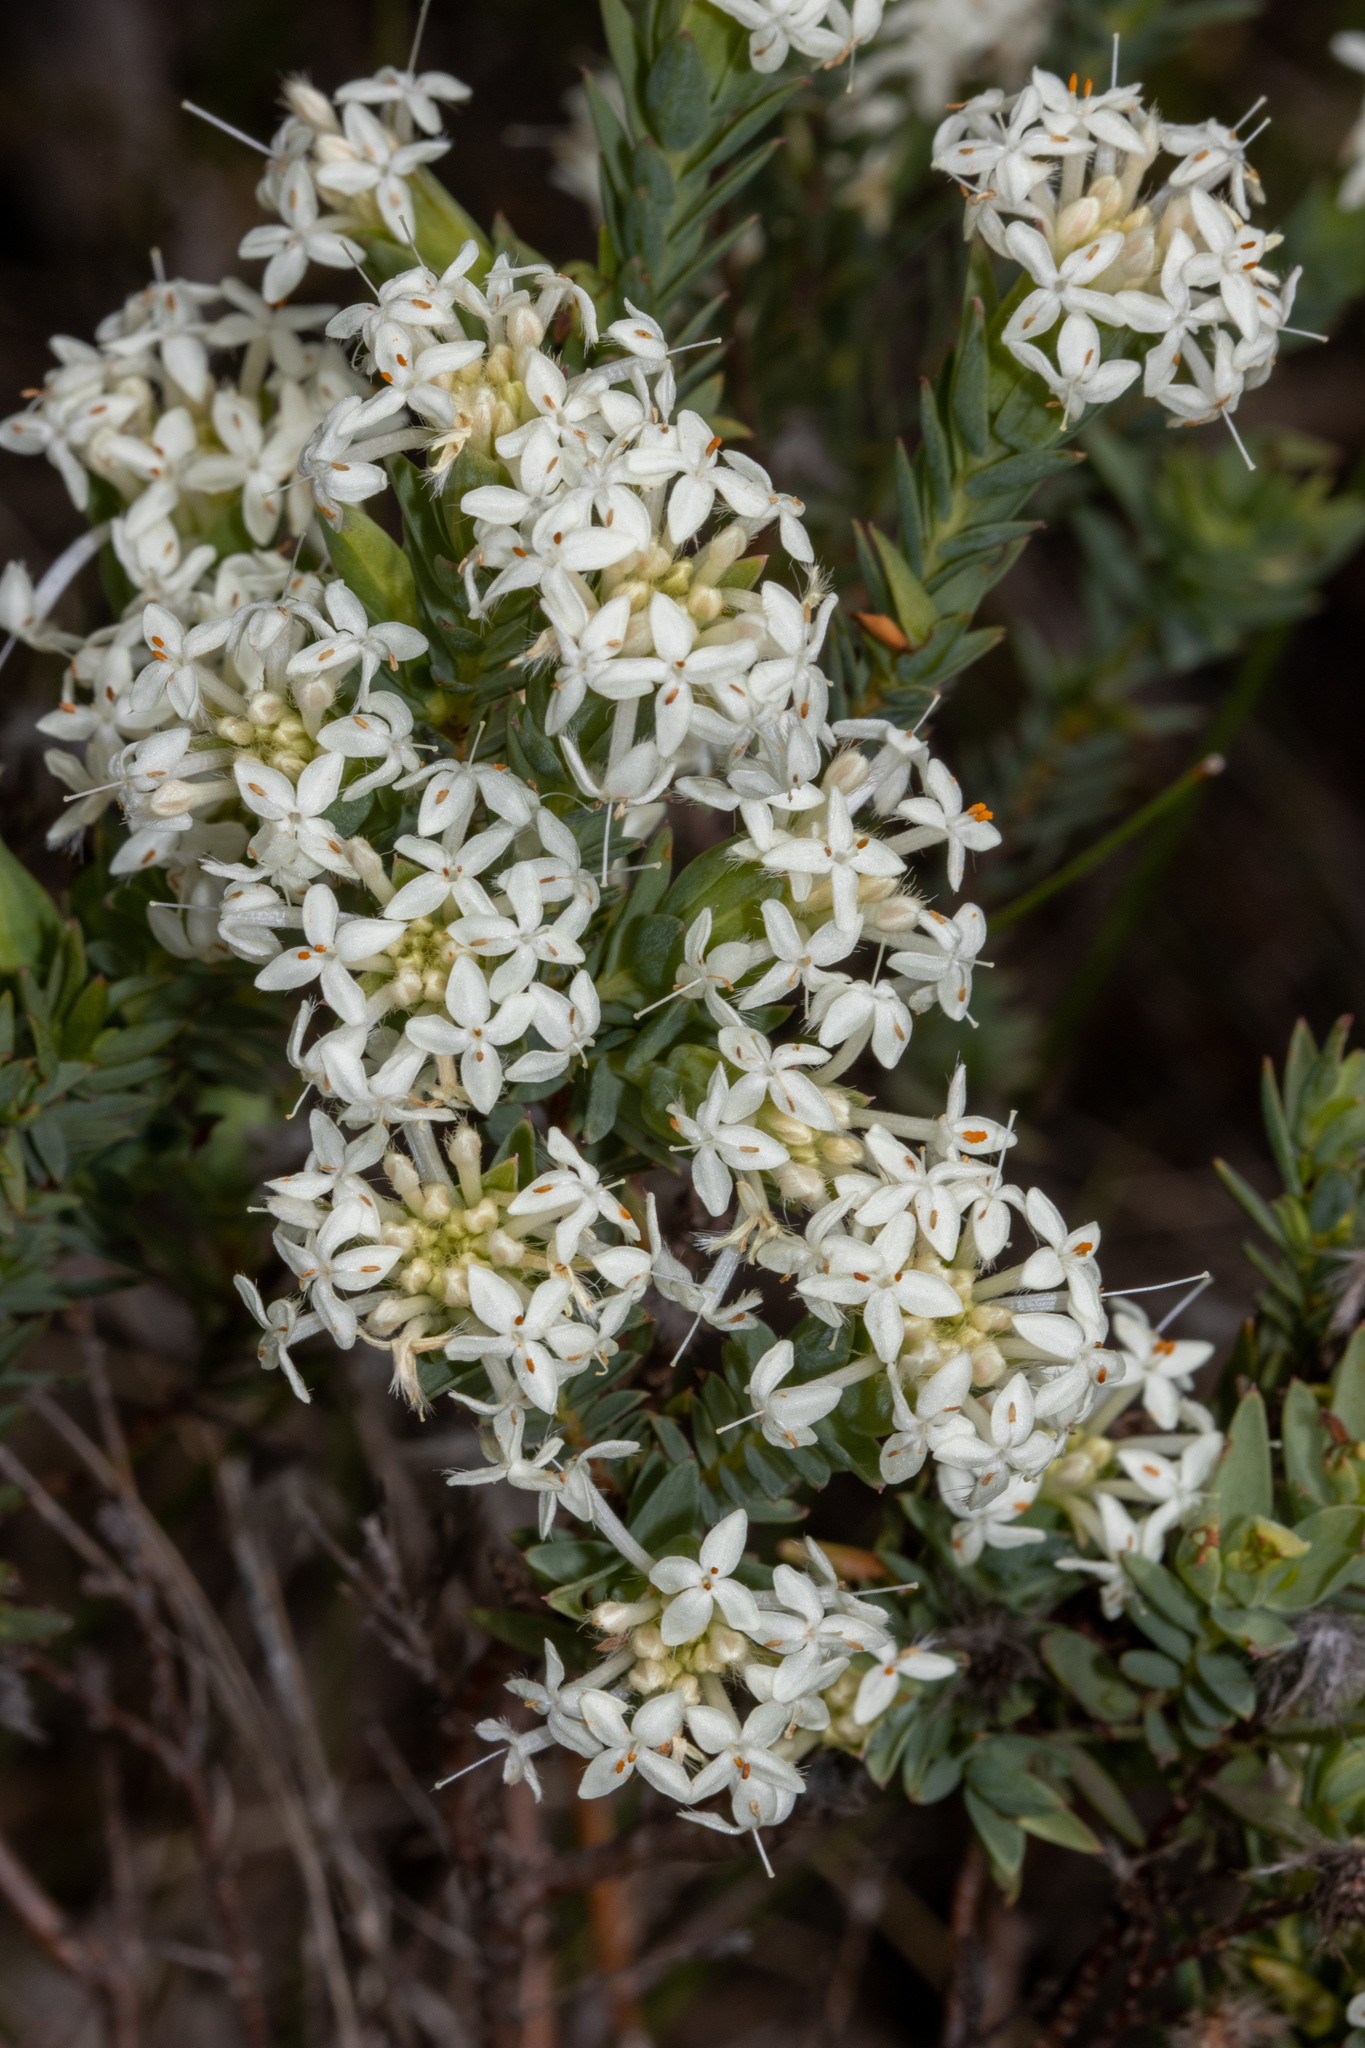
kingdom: Plantae
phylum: Tracheophyta
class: Magnoliopsida
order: Malvales
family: Thymelaeaceae
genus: Pimelea
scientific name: Pimelea glauca
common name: Smooth riceflower
